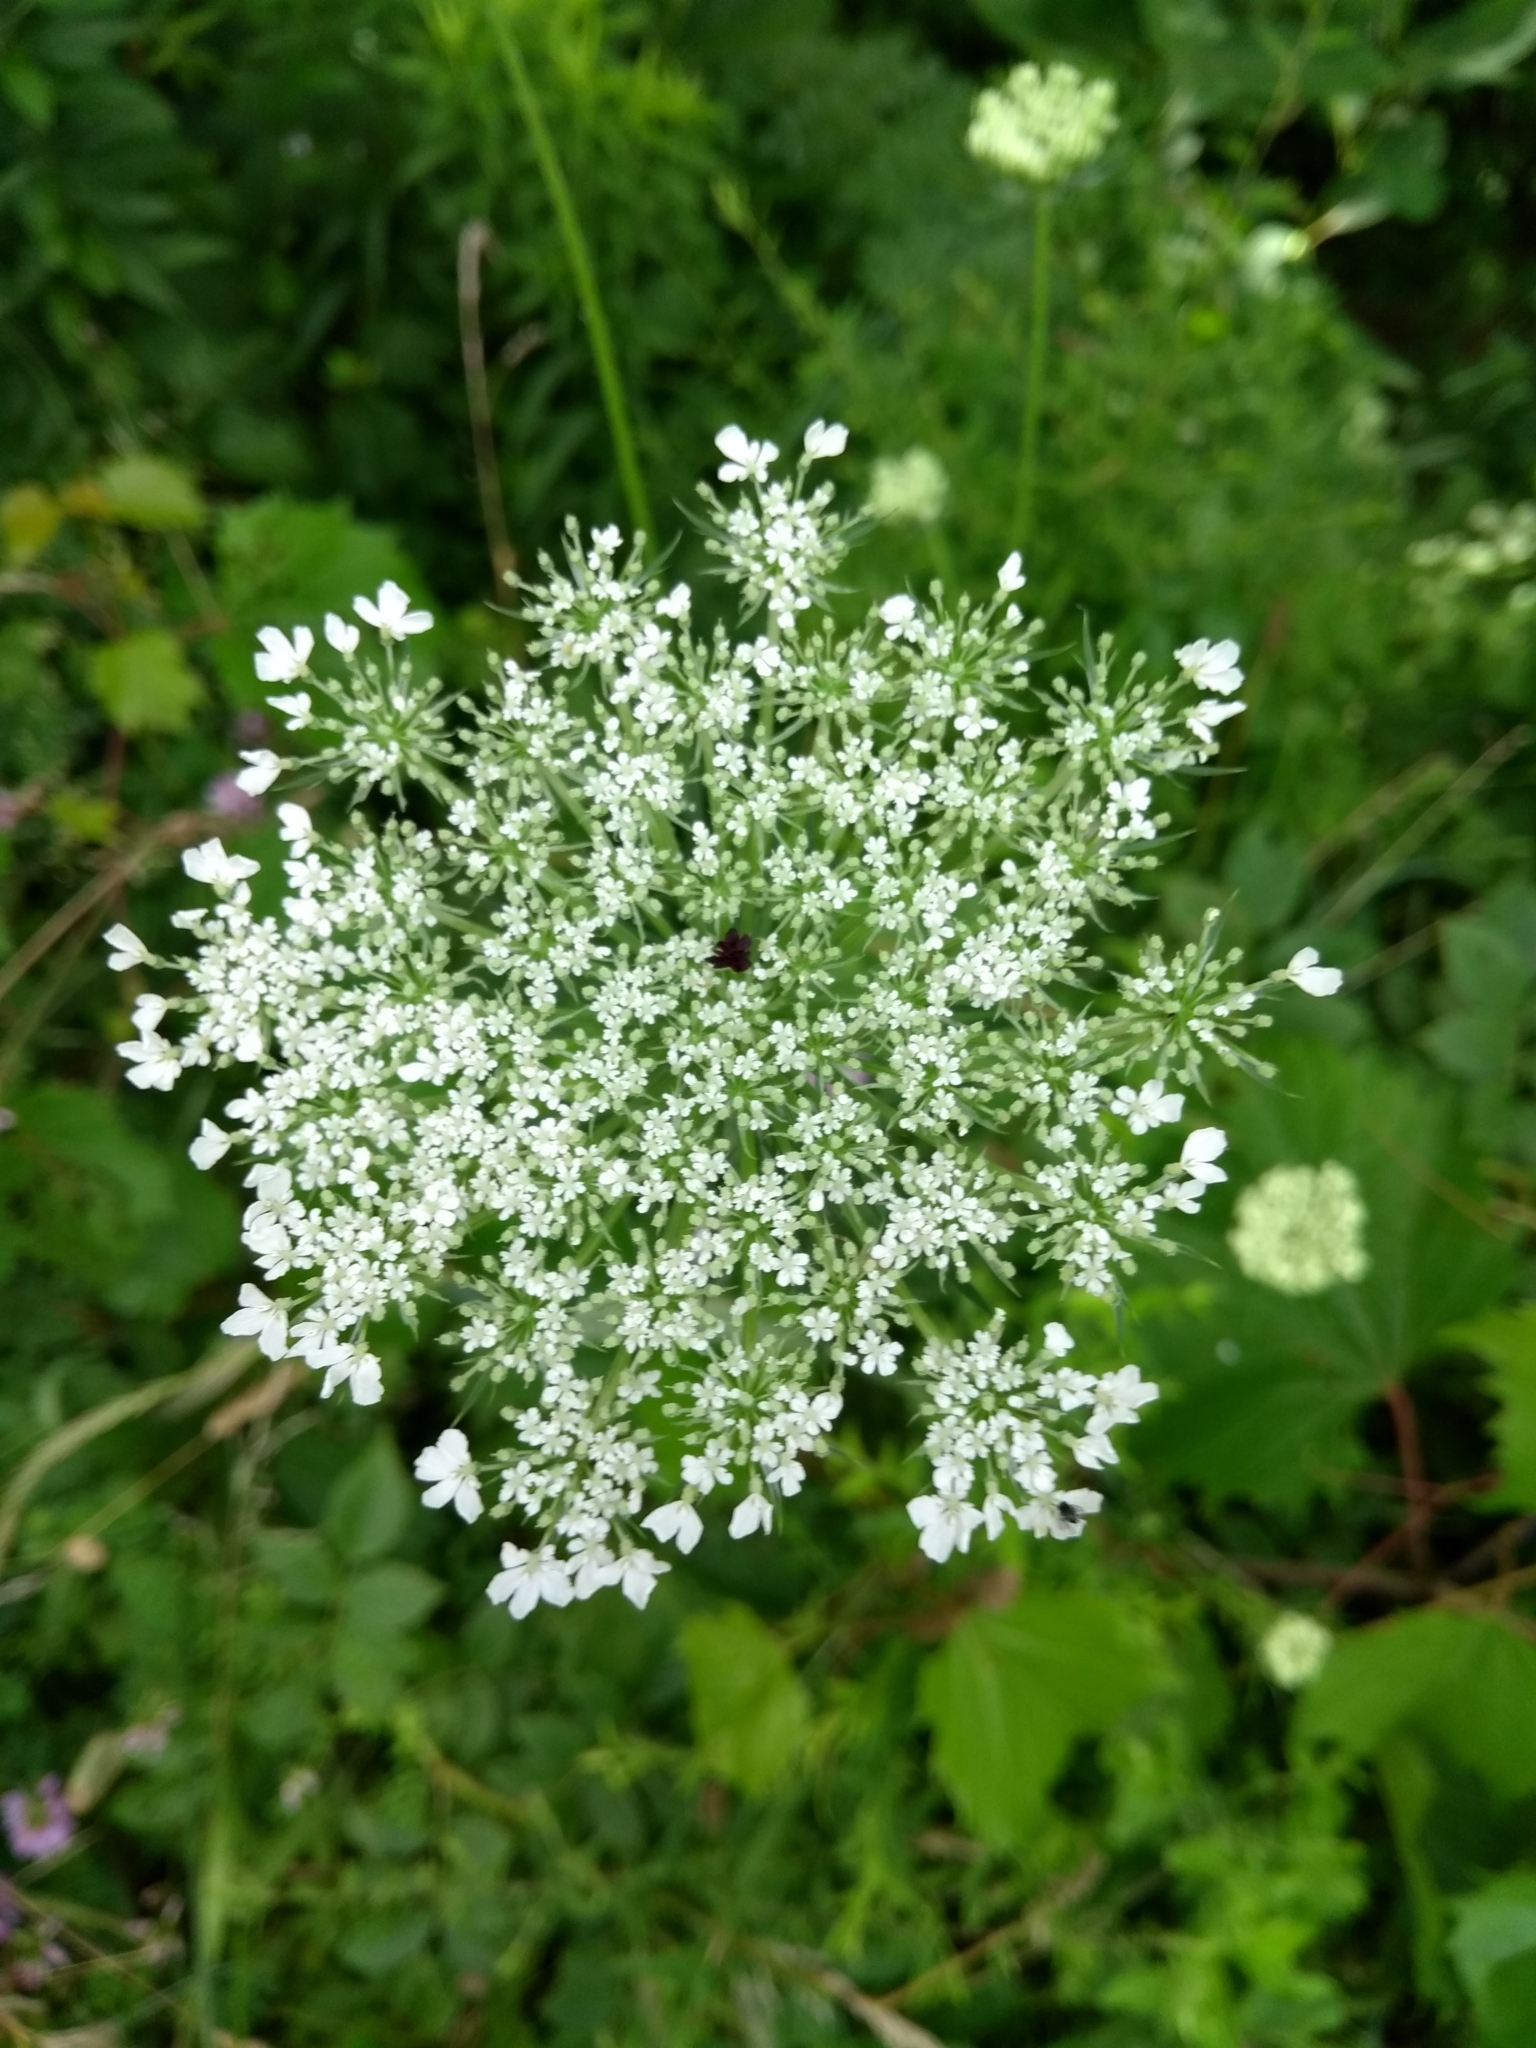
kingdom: Plantae
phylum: Tracheophyta
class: Magnoliopsida
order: Apiales
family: Apiaceae
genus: Daucus
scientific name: Daucus carota
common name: Wild carrot
